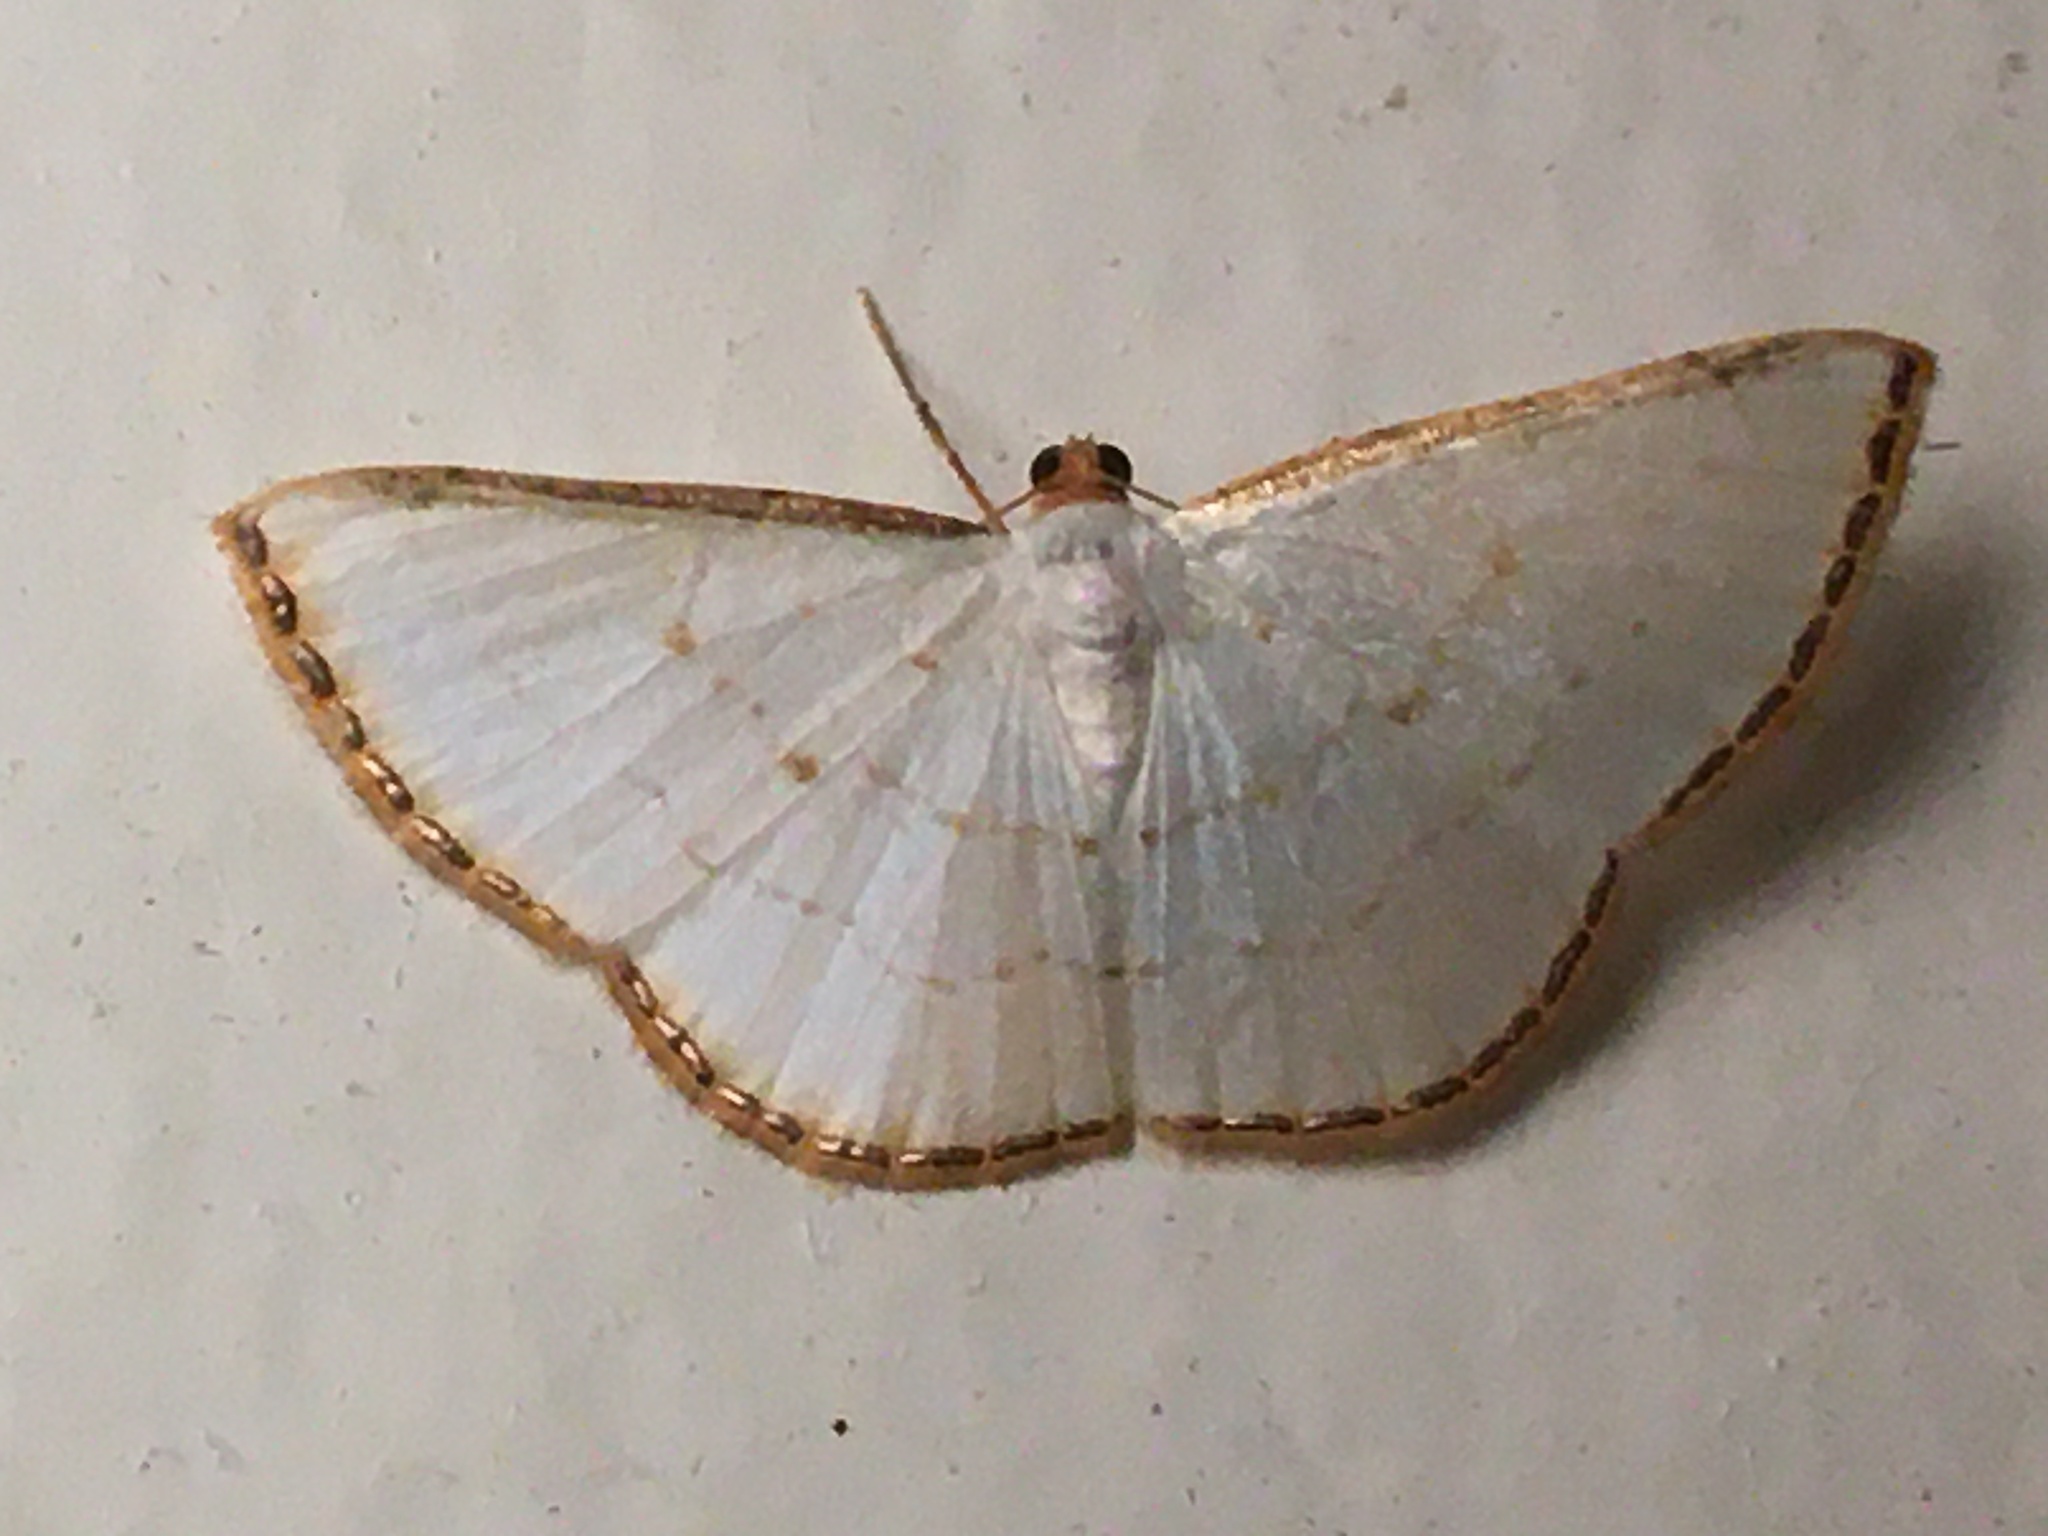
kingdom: Animalia
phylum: Arthropoda
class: Insecta
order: Lepidoptera
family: Geometridae
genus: Leuciris
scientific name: Leuciris fimbriaria
